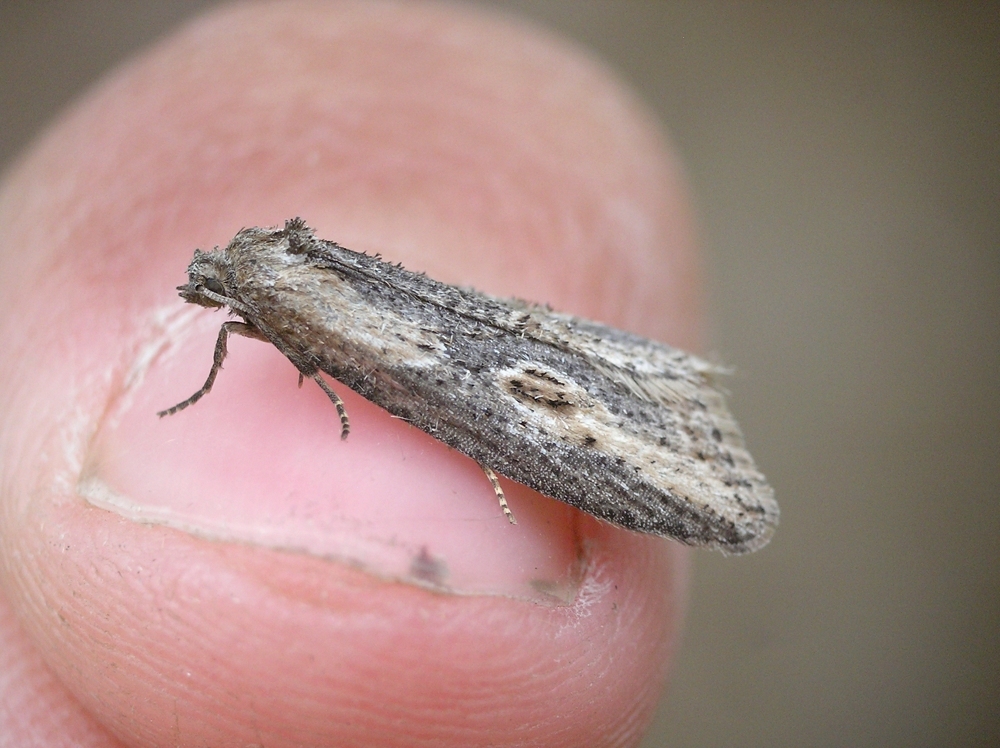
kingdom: Animalia
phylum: Arthropoda
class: Insecta
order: Lepidoptera
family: Tortricidae
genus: Doloploca
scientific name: Doloploca punctulana
